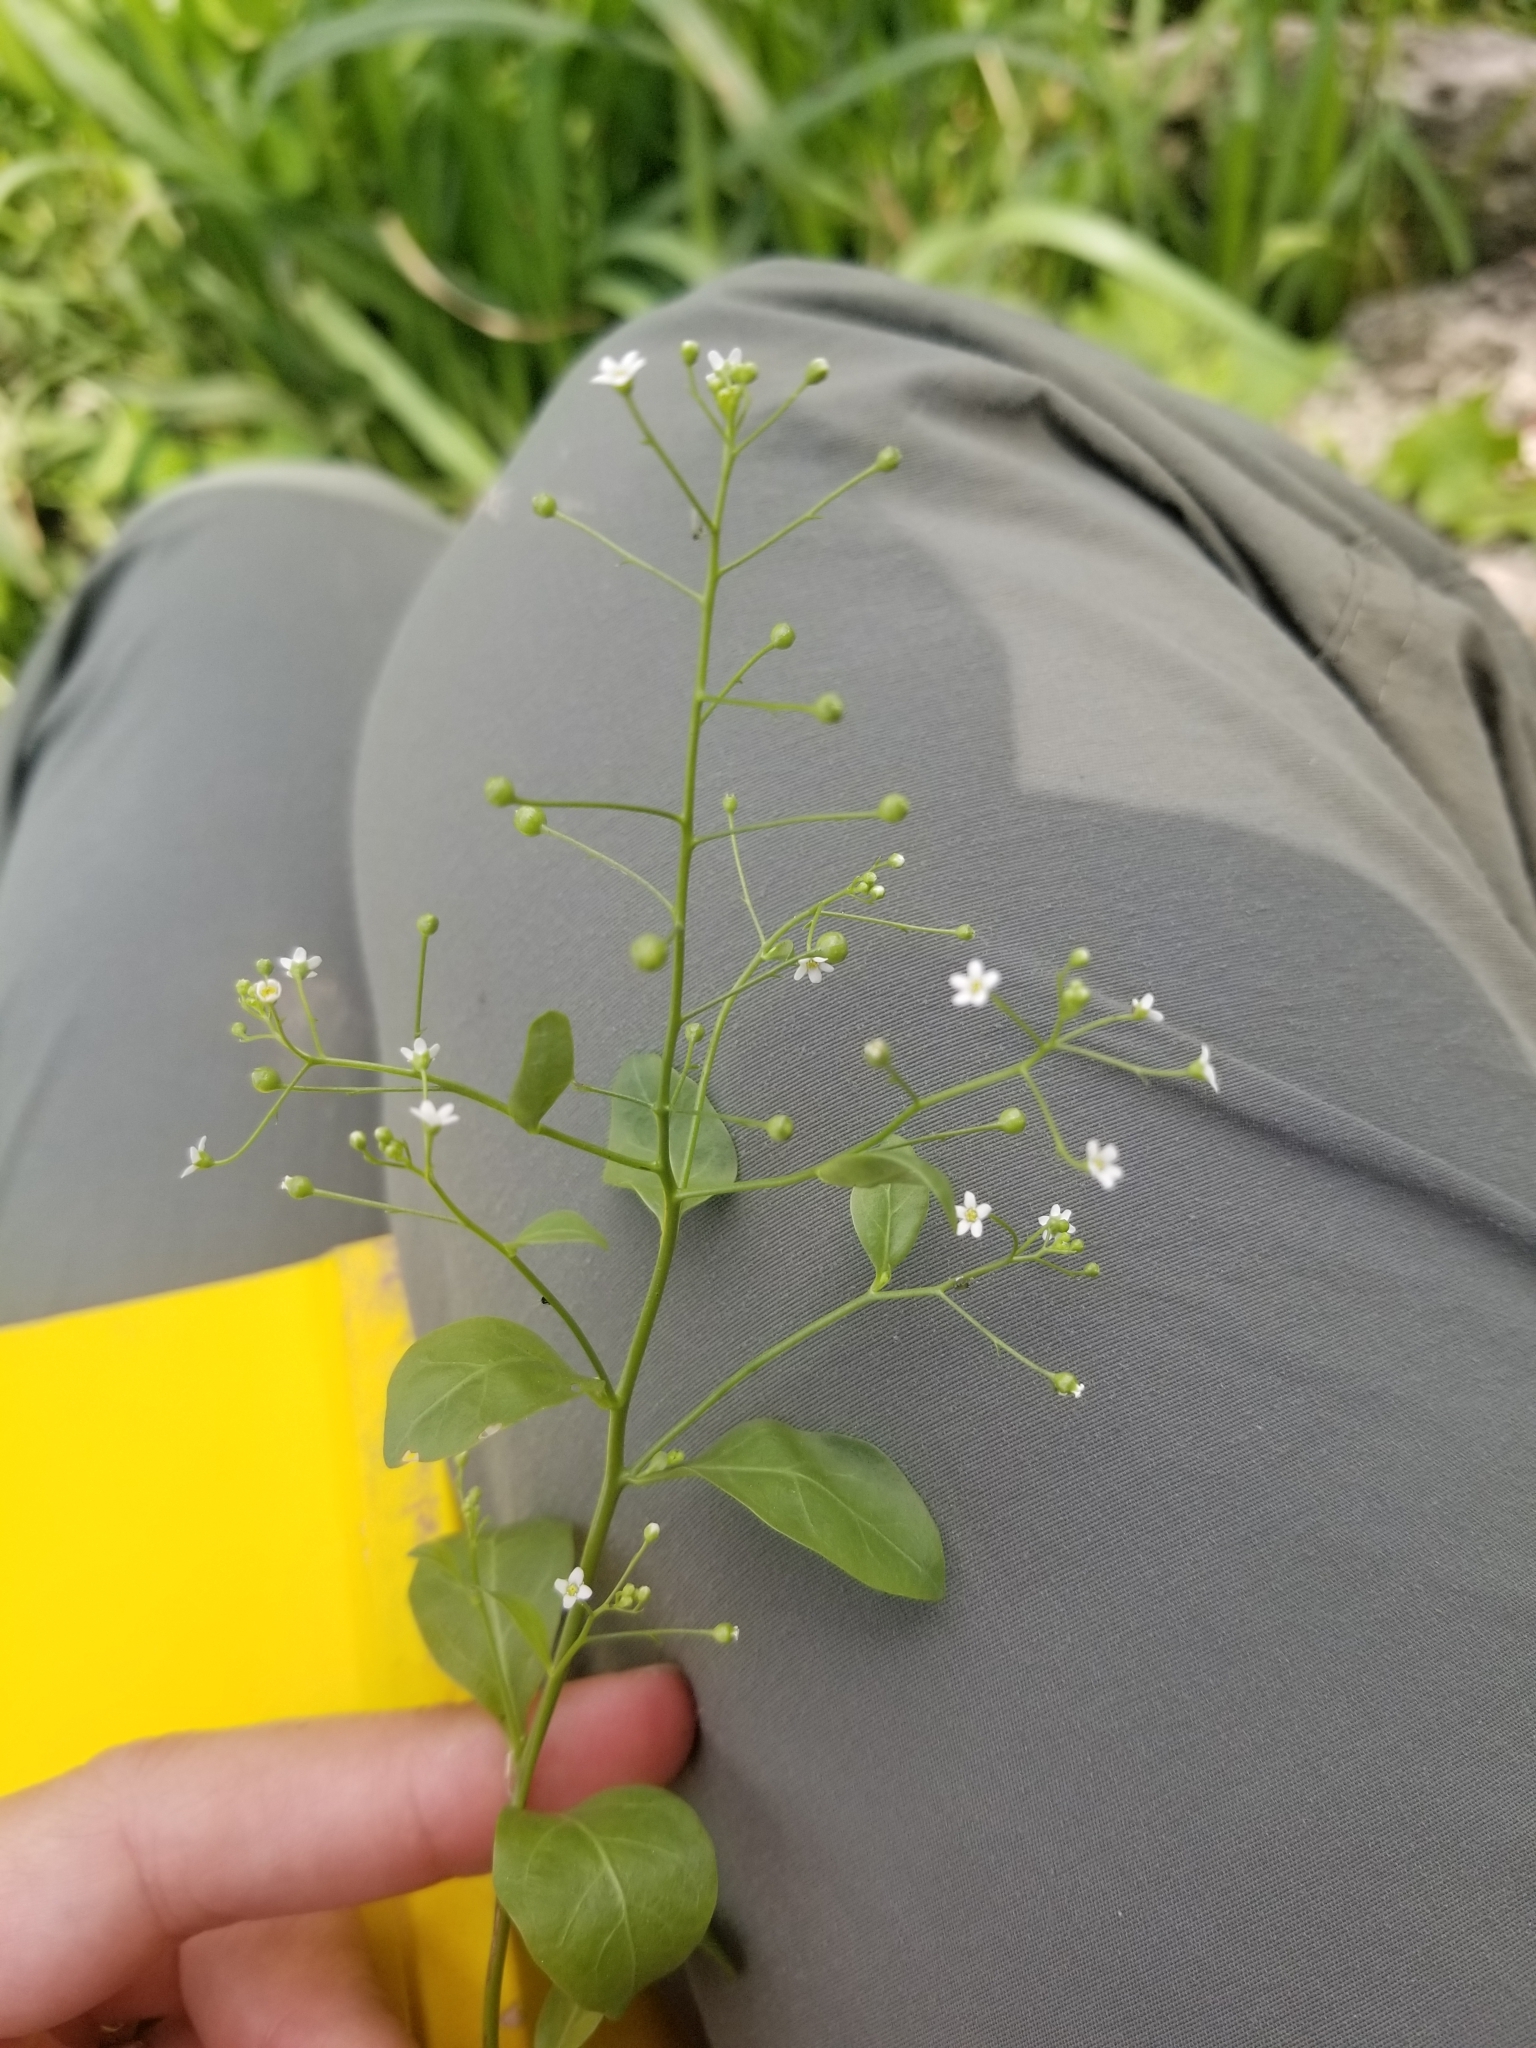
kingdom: Plantae
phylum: Tracheophyta
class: Magnoliopsida
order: Ericales
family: Primulaceae
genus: Samolus
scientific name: Samolus parviflorus
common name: False water pimpernel
